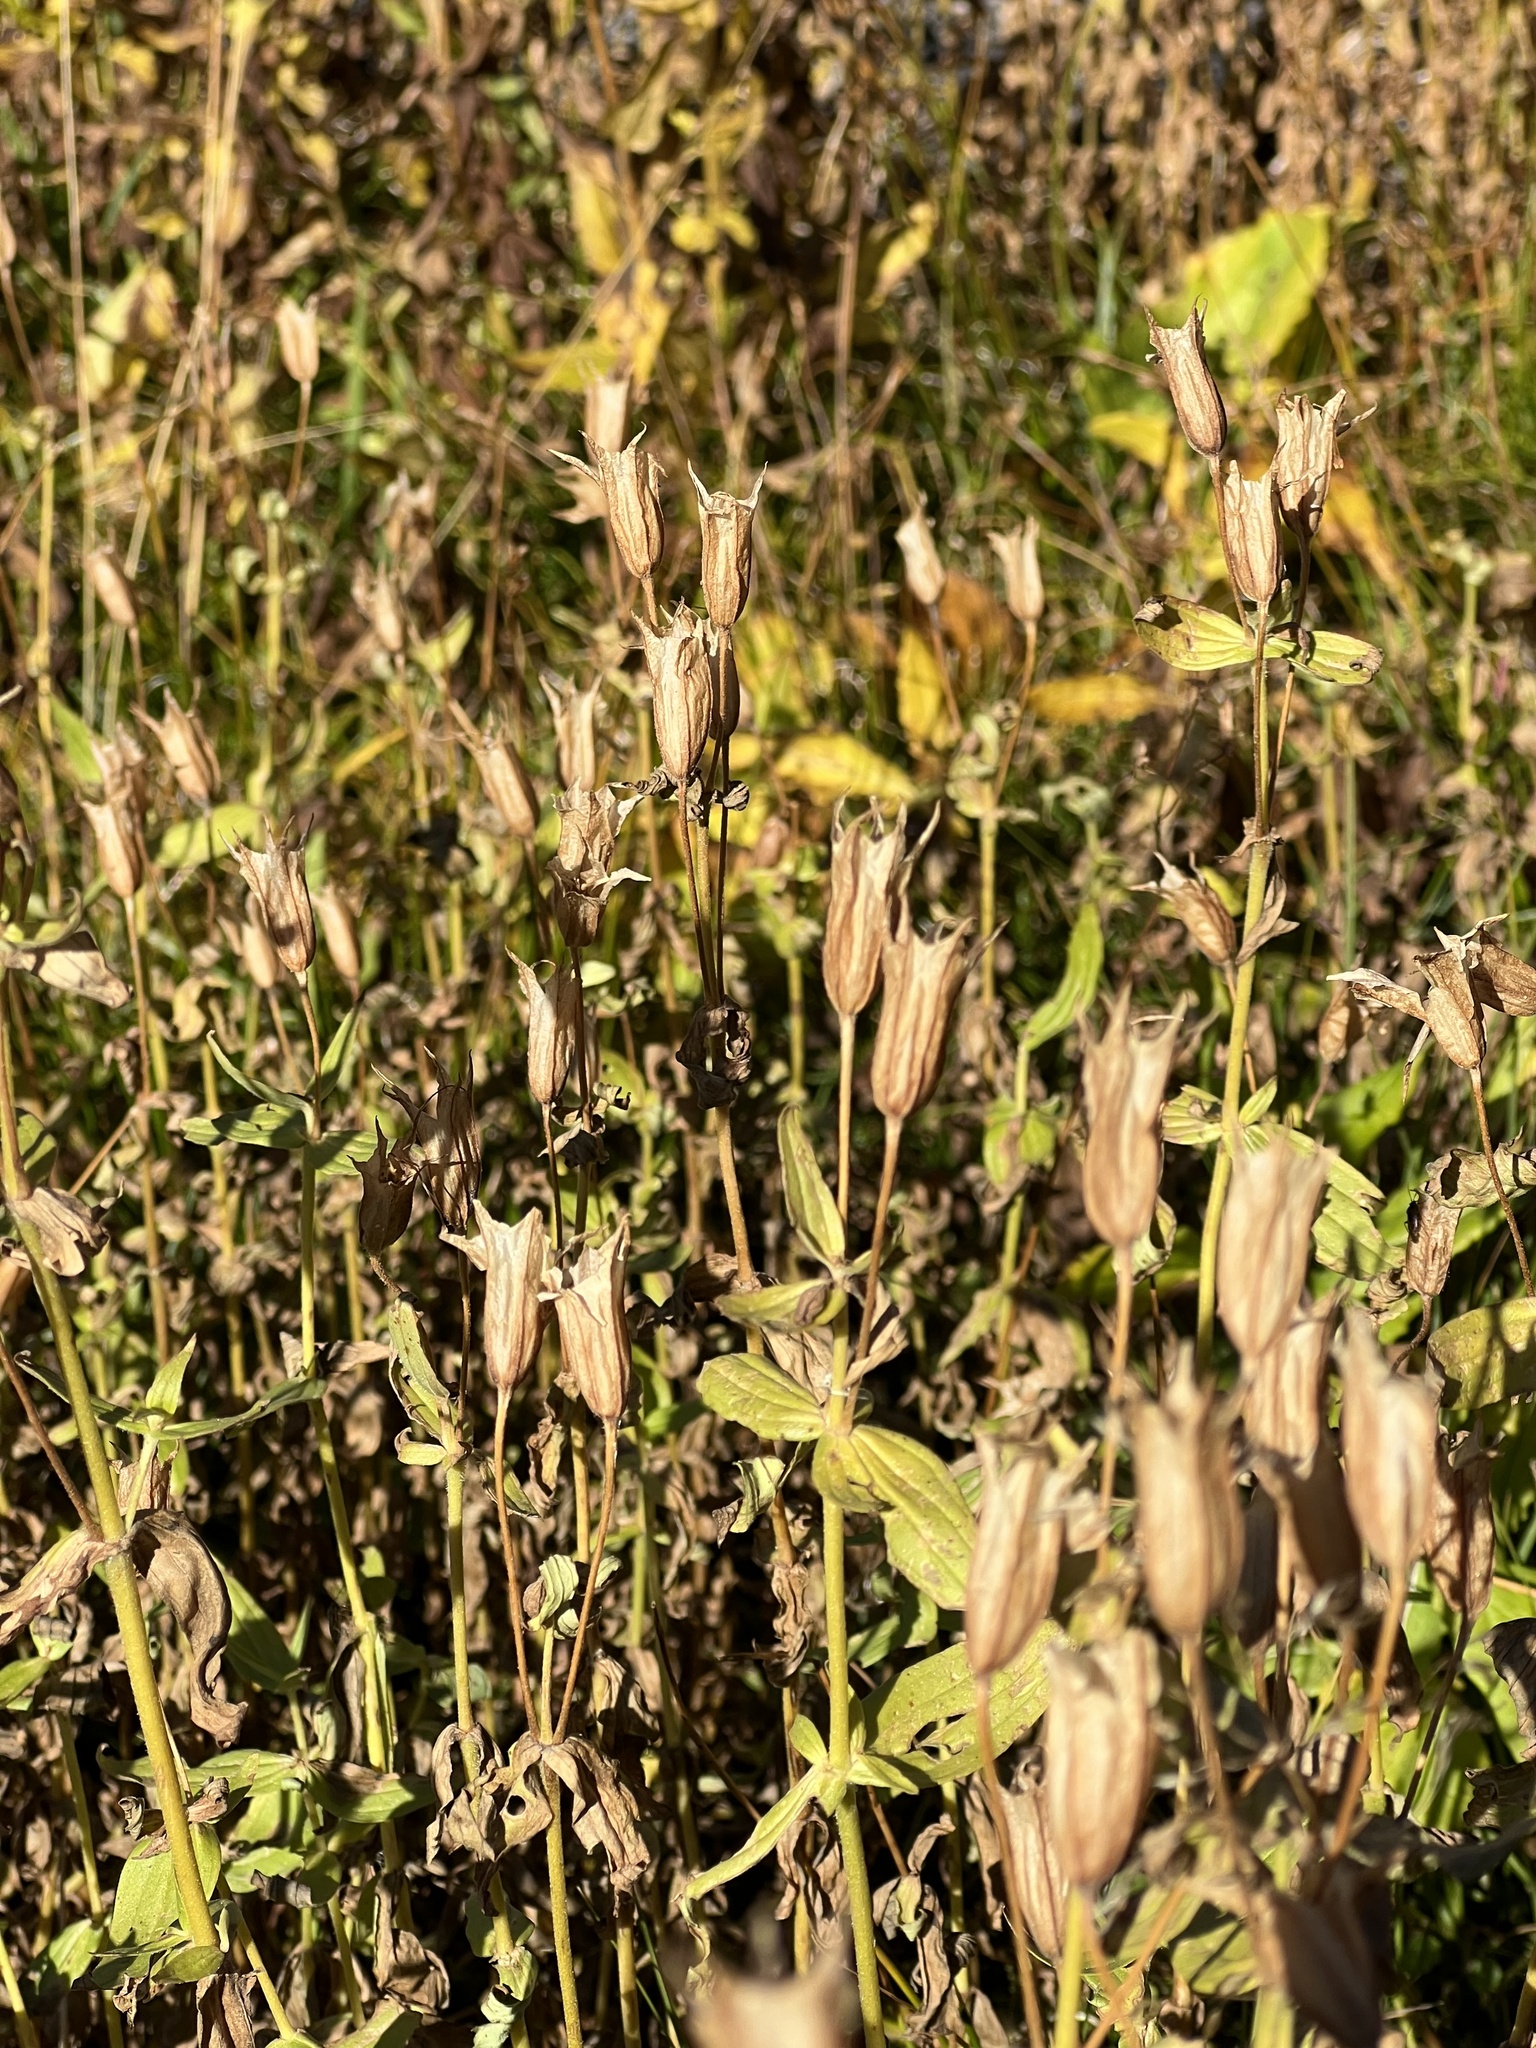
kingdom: Plantae
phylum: Tracheophyta
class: Magnoliopsida
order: Lamiales
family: Phrymaceae
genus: Erythranthe
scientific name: Erythranthe lewisii
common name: Lewis's monkey-flower
